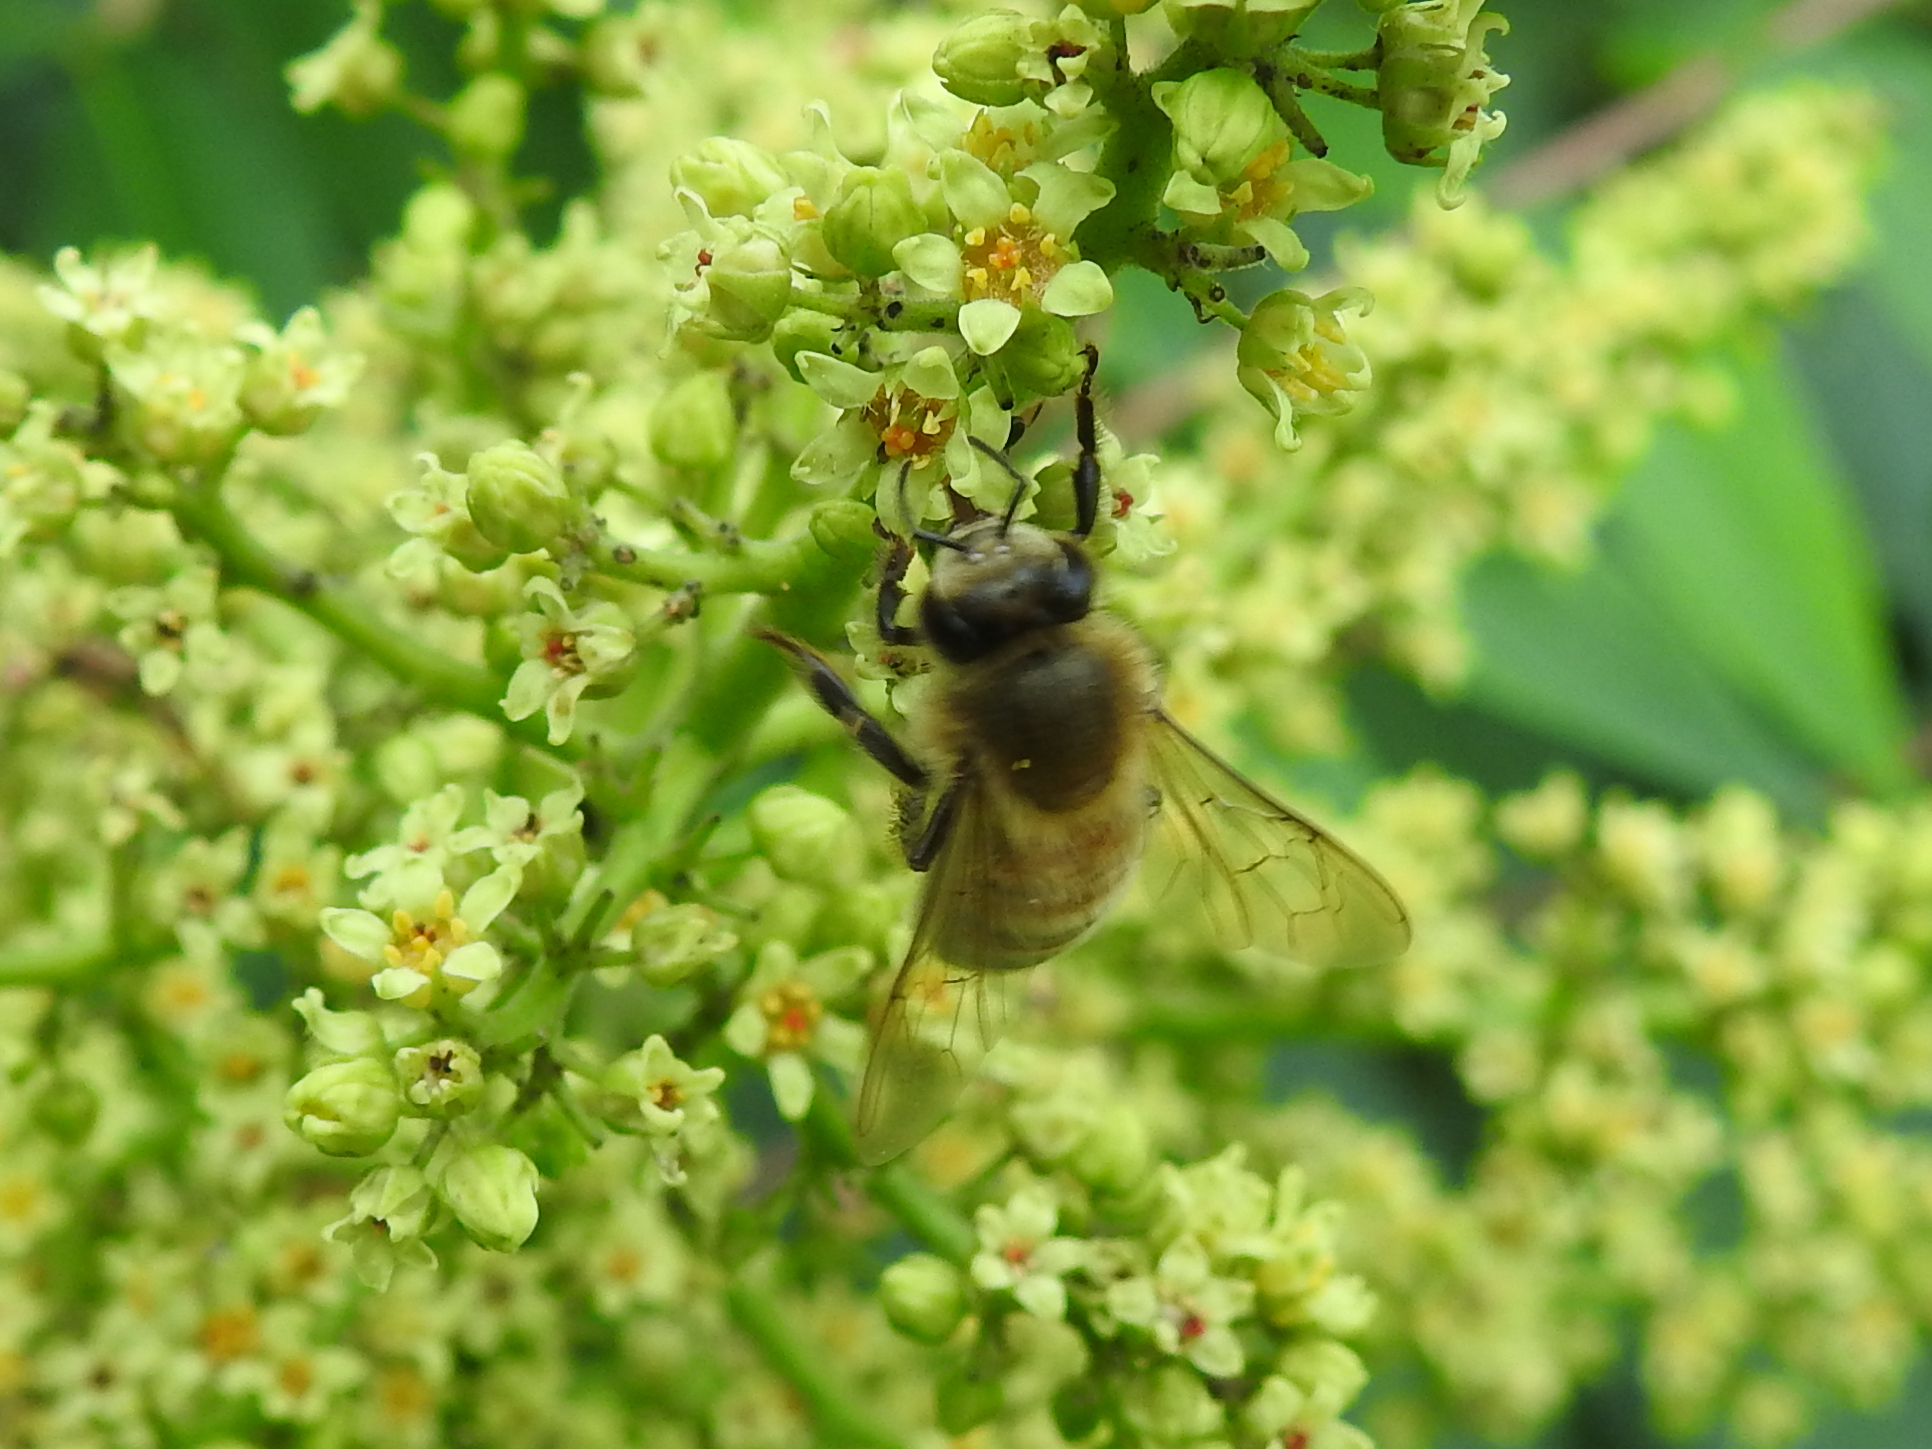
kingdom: Animalia
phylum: Arthropoda
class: Insecta
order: Hymenoptera
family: Apidae
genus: Apis
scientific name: Apis mellifera
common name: Honey bee
